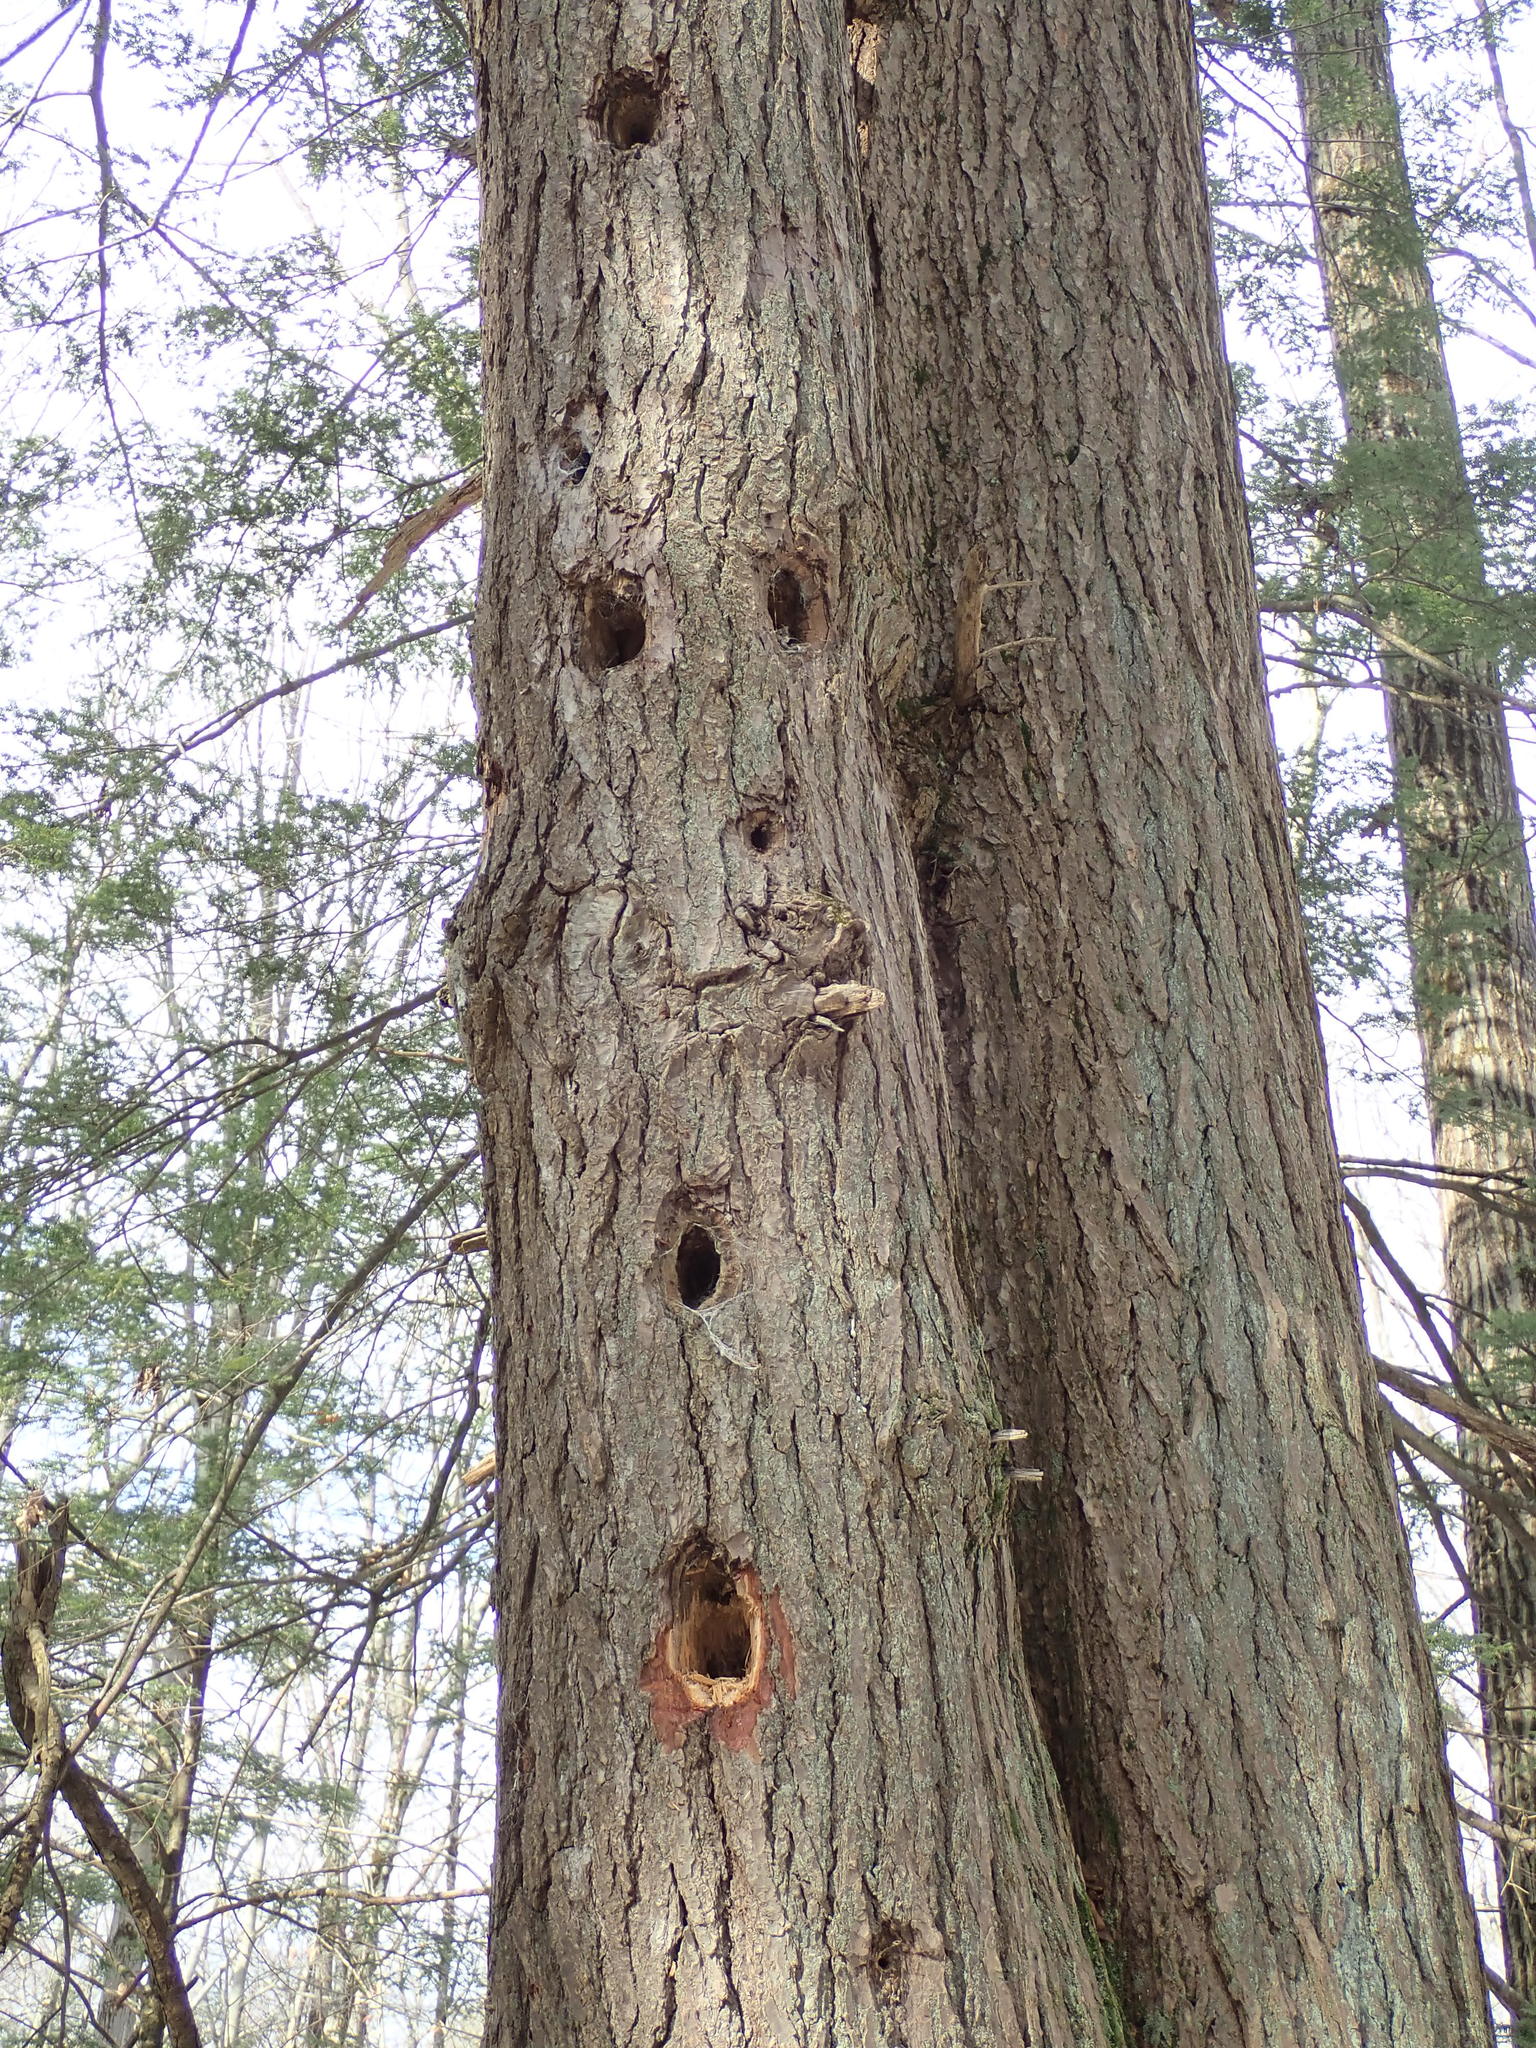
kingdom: Animalia
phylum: Chordata
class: Aves
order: Piciformes
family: Picidae
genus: Dryocopus
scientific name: Dryocopus pileatus
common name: Pileated woodpecker
